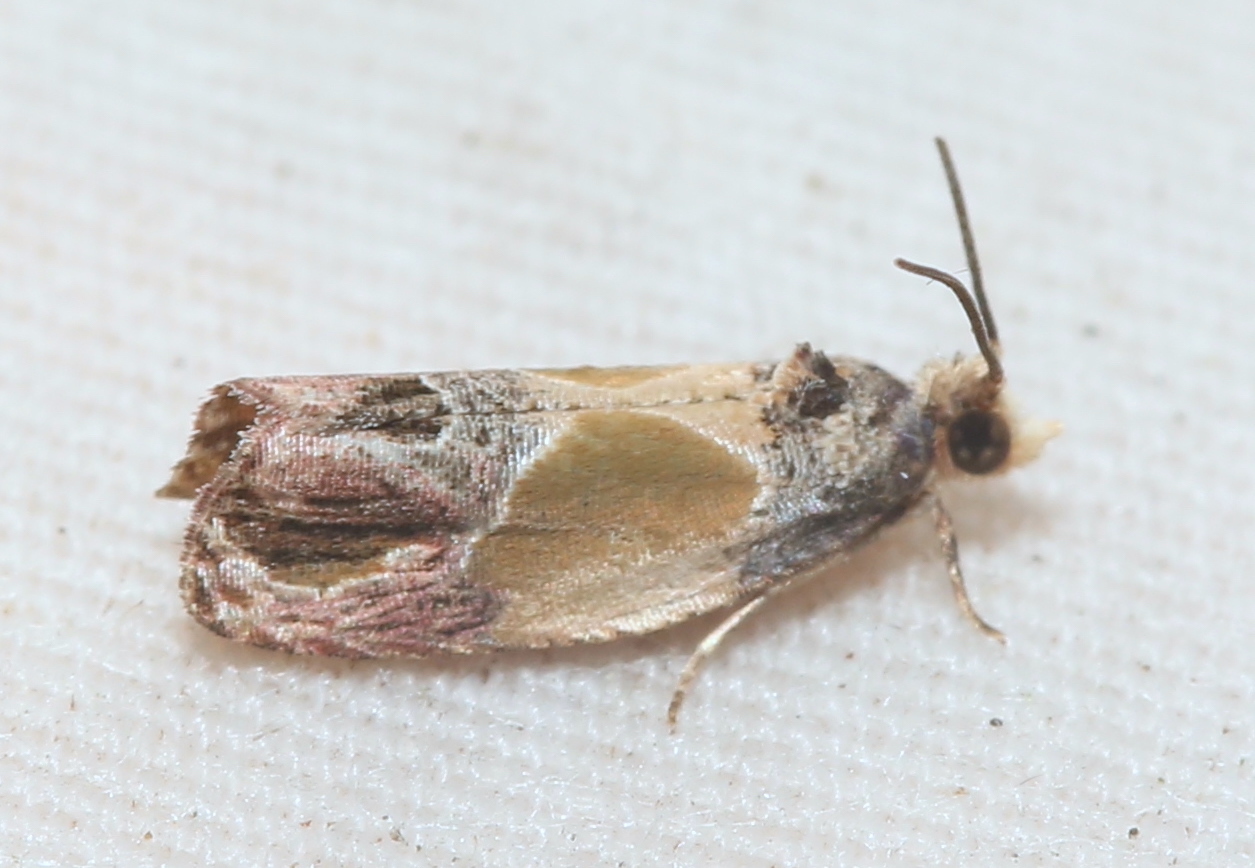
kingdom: Animalia
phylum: Arthropoda
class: Insecta
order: Lepidoptera
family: Tortricidae
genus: Eumarozia
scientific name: Eumarozia malachitana
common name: Sculptured moth
